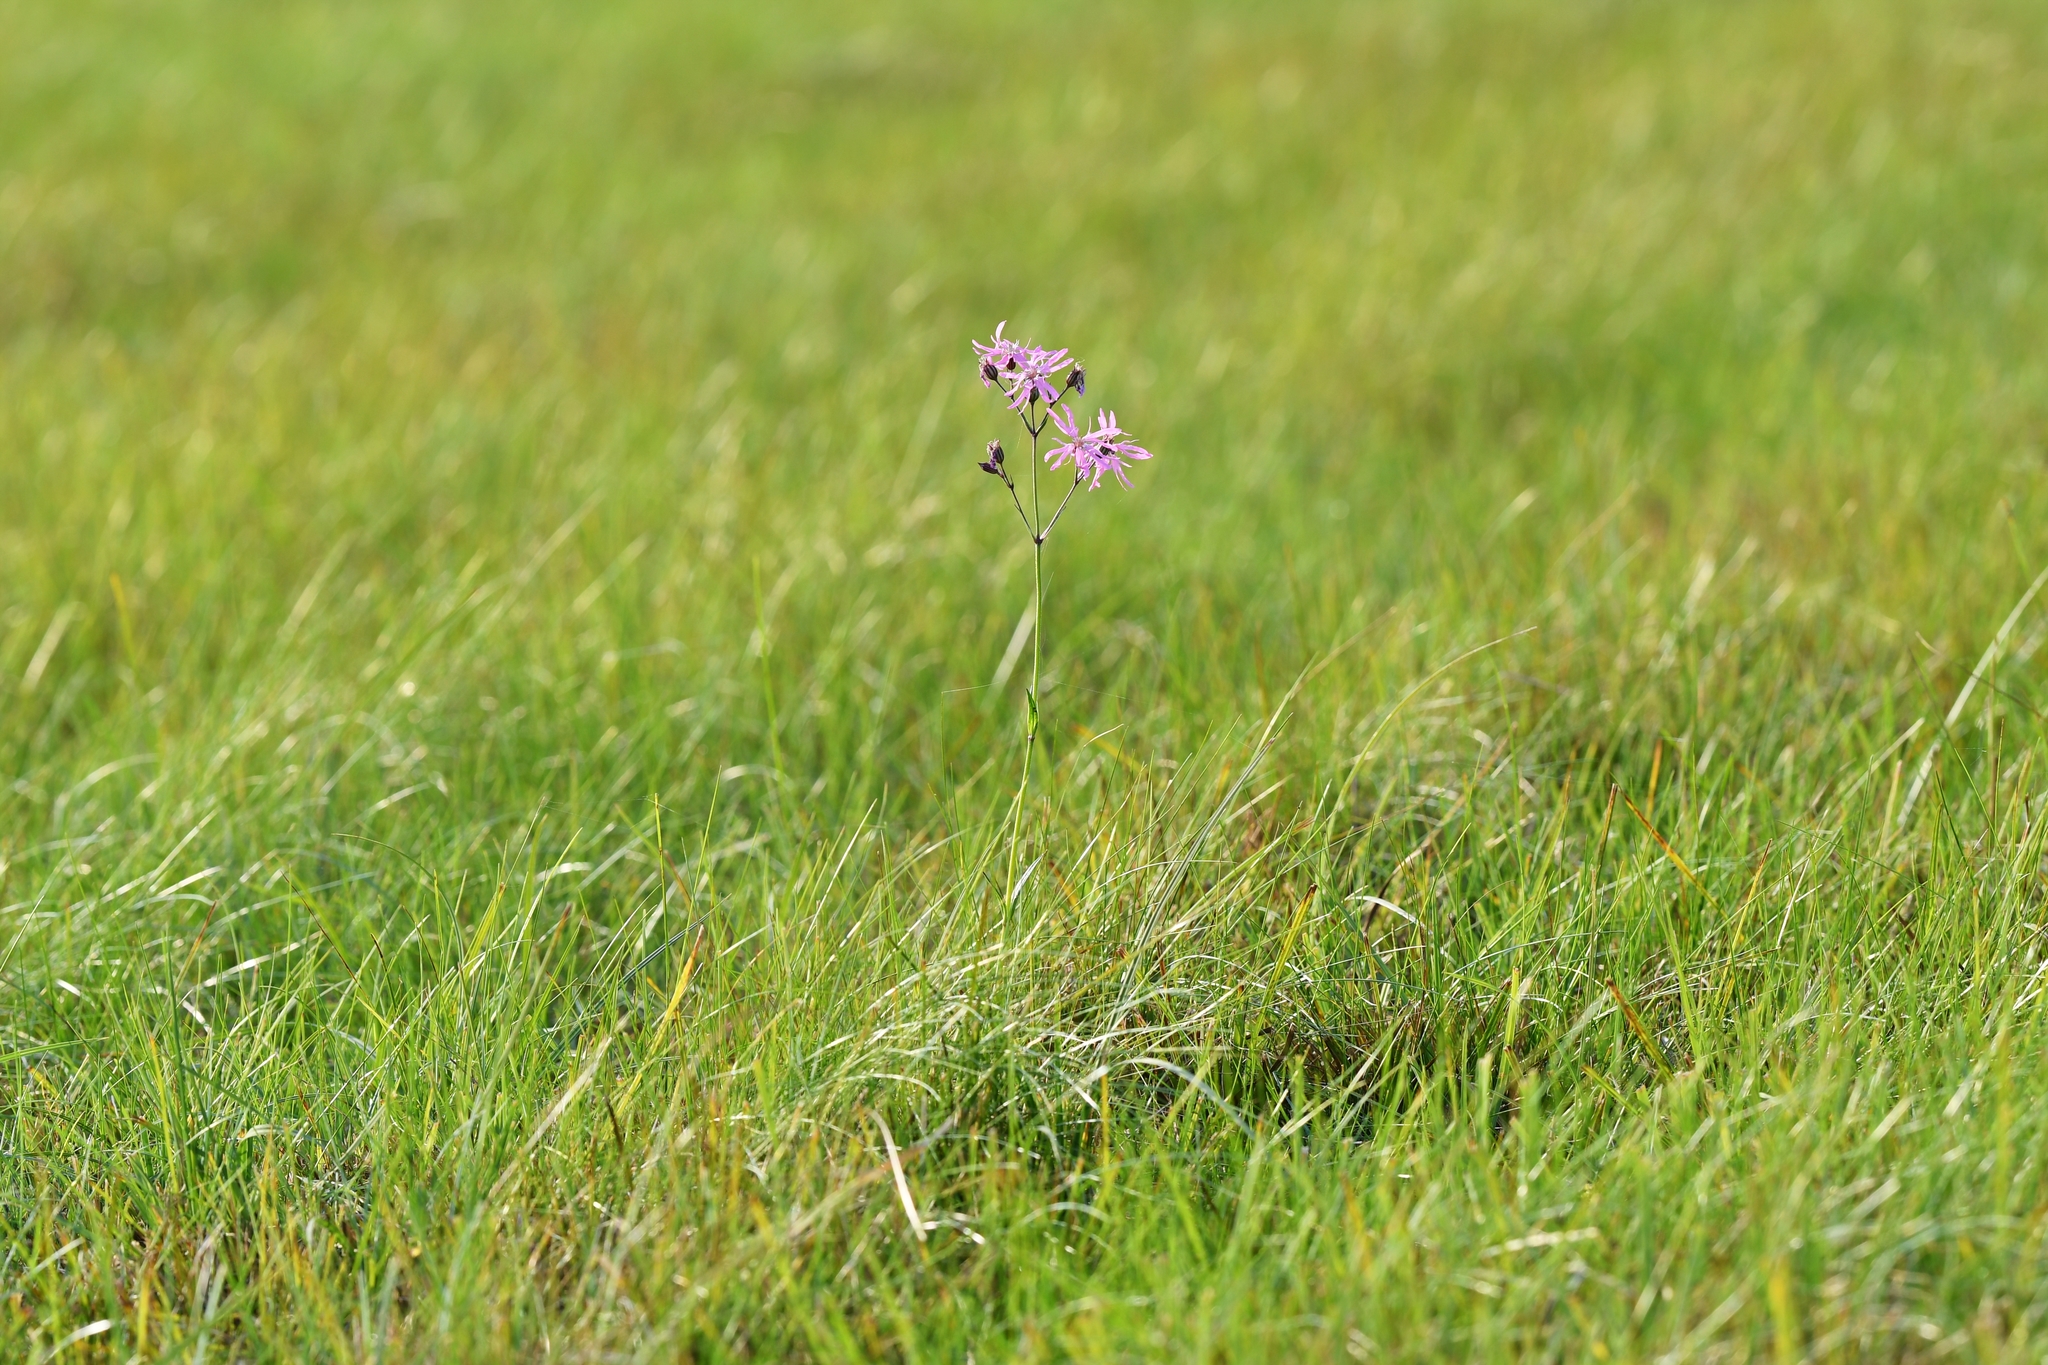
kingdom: Plantae
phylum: Tracheophyta
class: Magnoliopsida
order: Caryophyllales
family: Caryophyllaceae
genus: Silene
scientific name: Silene flos-cuculi
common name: Ragged-robin
